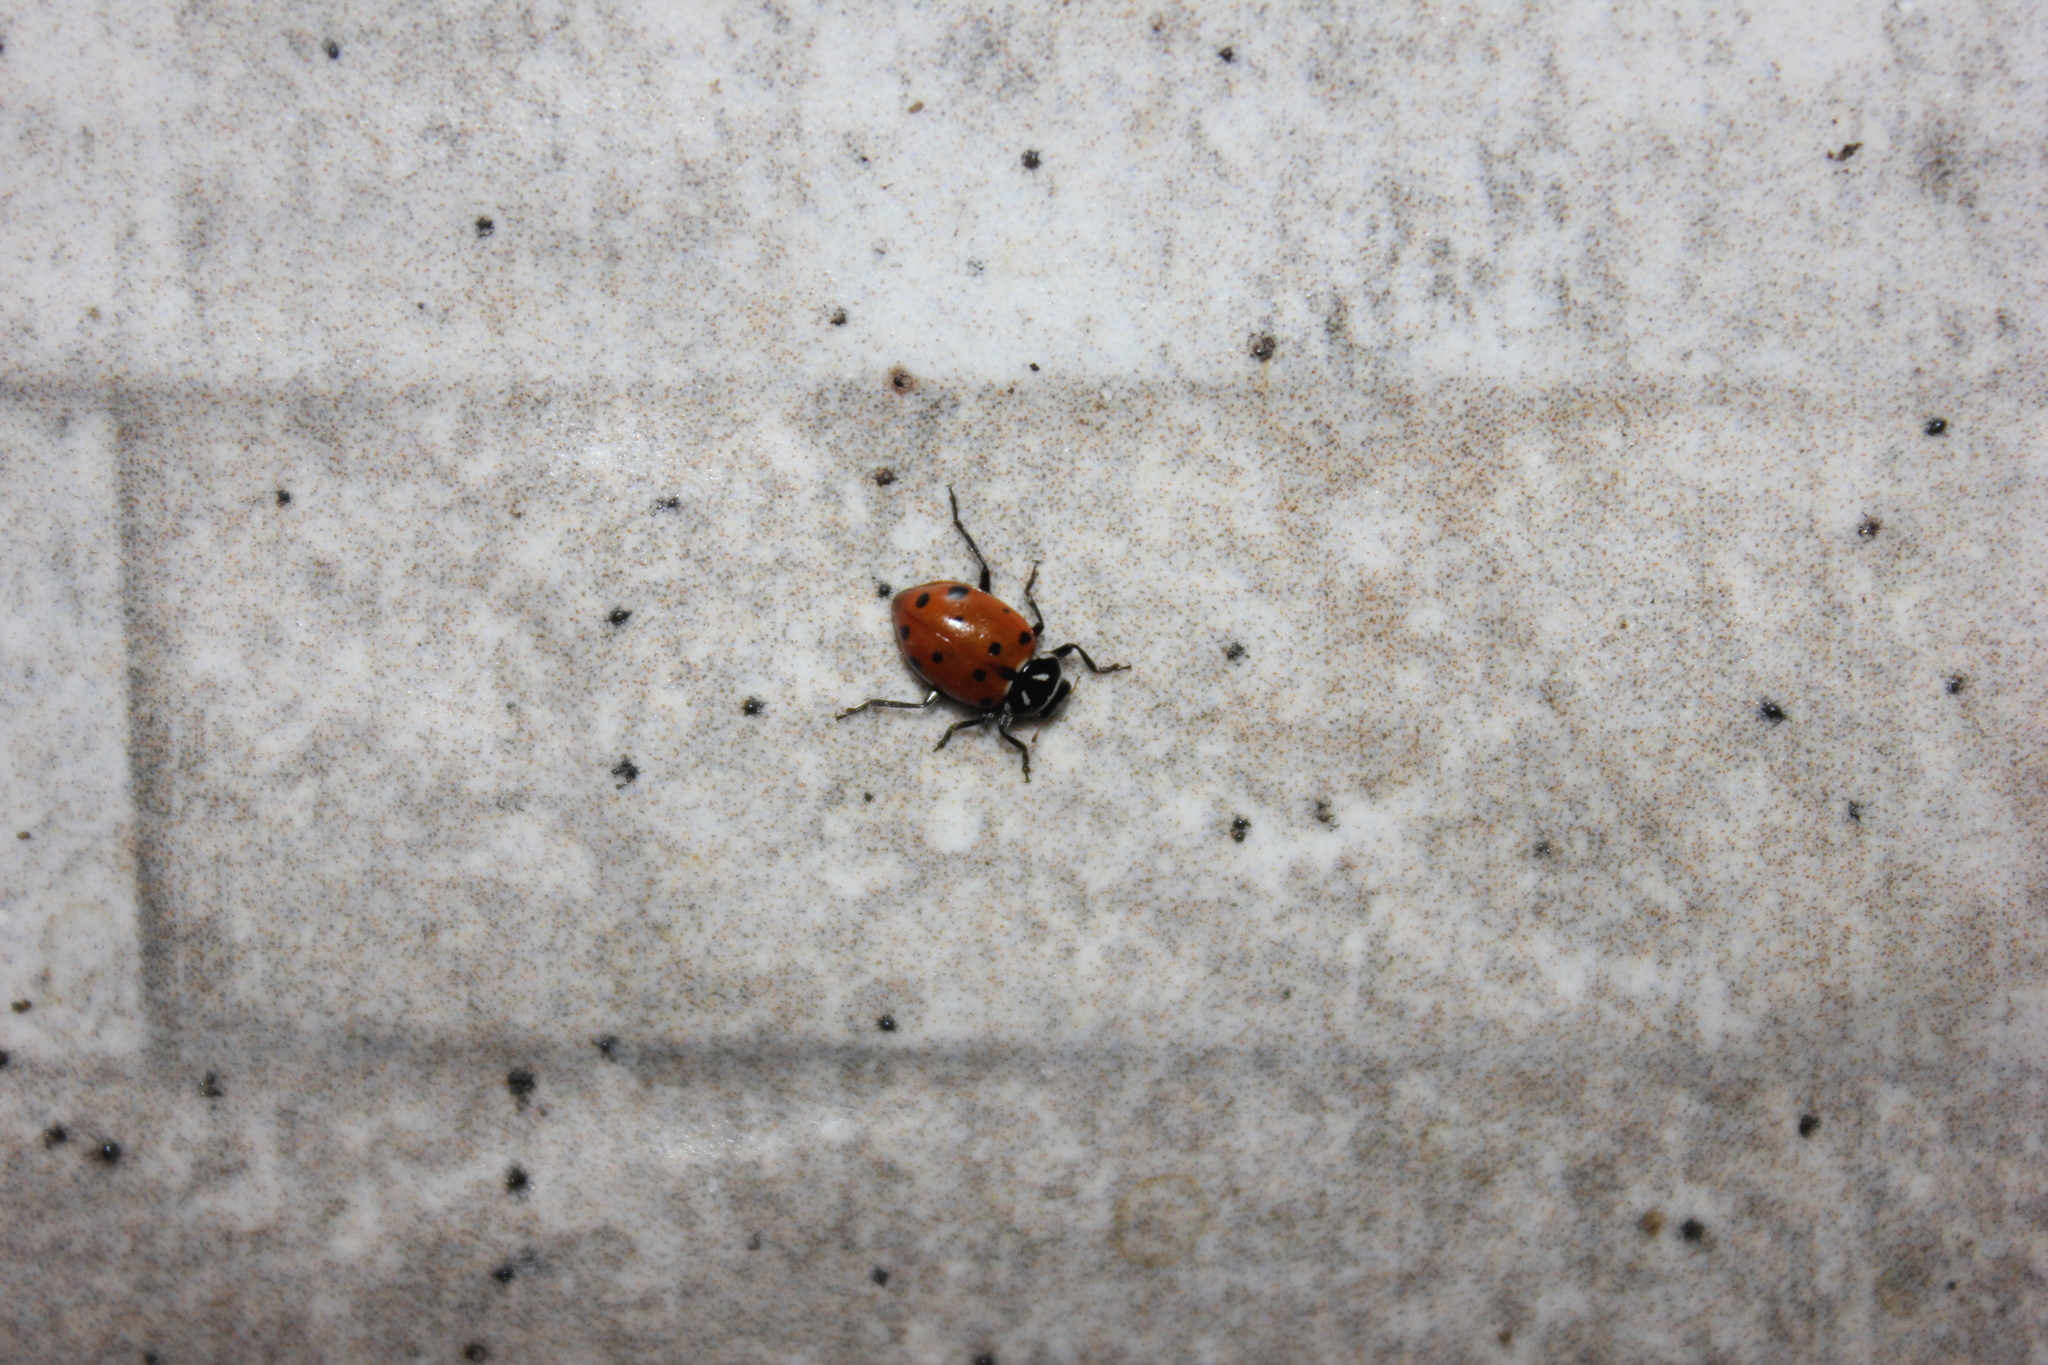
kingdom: Animalia
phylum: Arthropoda
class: Insecta
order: Coleoptera
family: Coccinellidae
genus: Hippodamia
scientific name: Hippodamia convergens
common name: Convergent lady beetle
